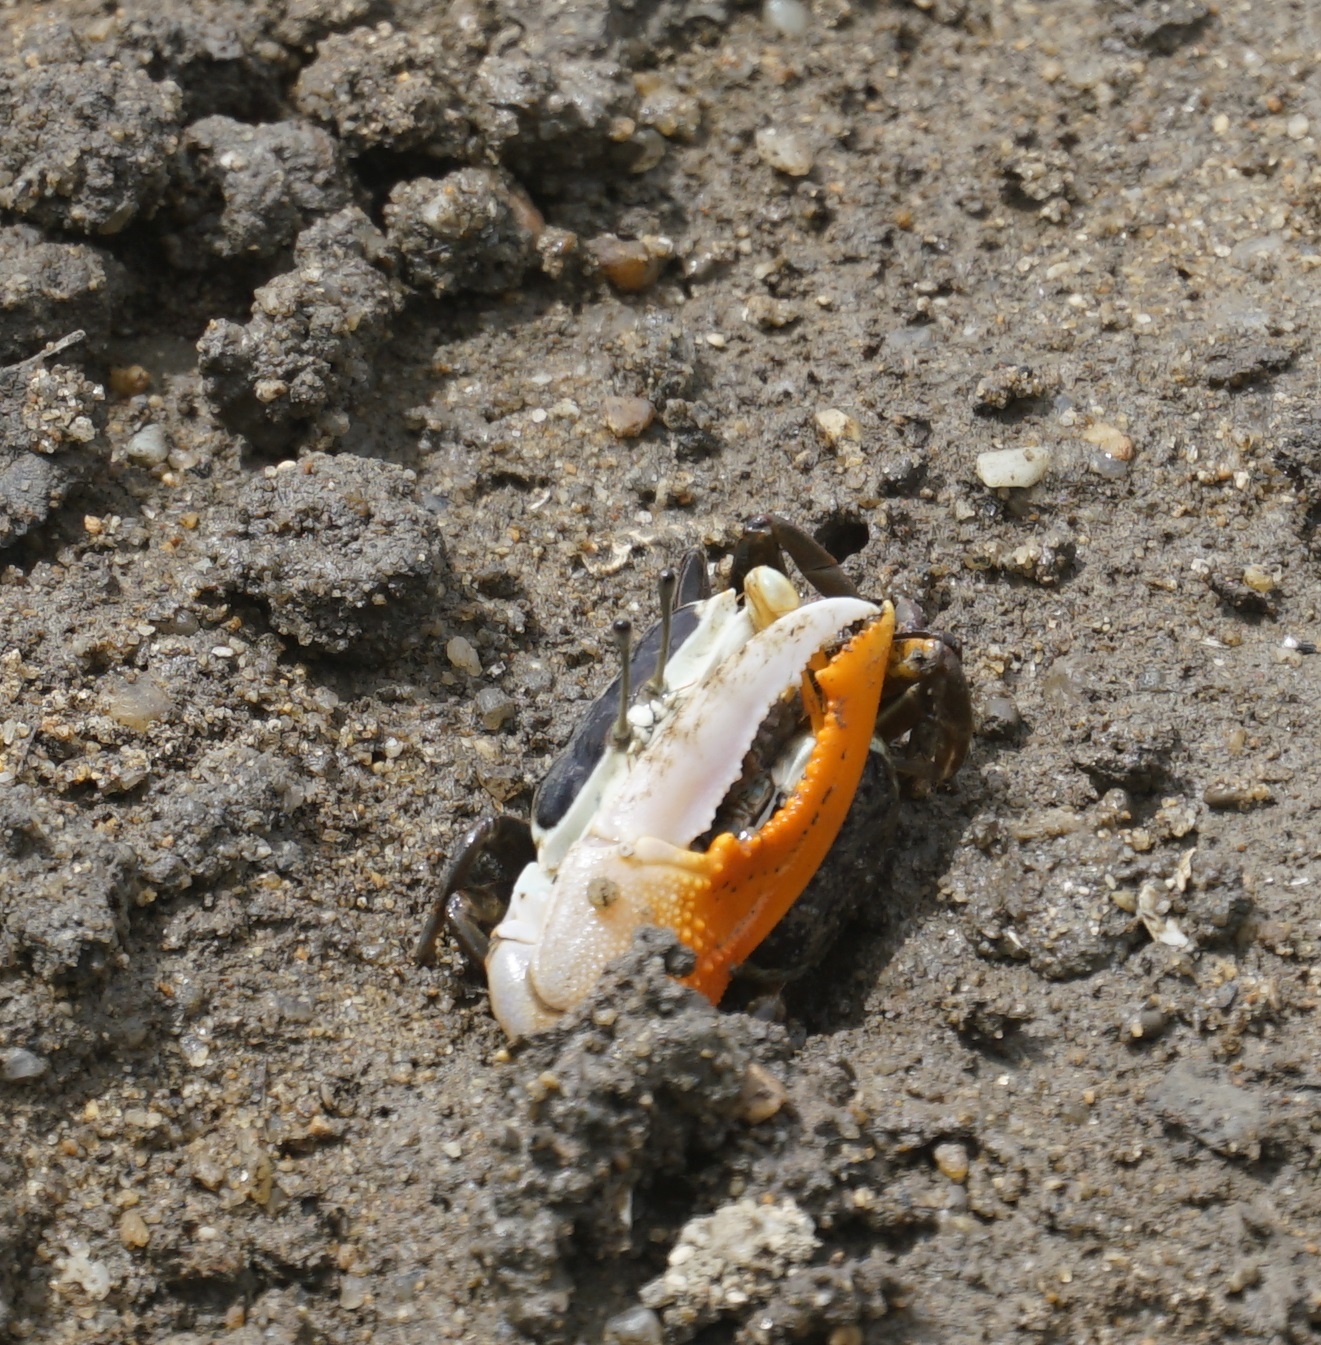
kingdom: Animalia
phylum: Arthropoda
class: Malacostraca
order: Decapoda
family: Ocypodidae
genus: Gelasimus
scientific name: Gelasimus vomeris
